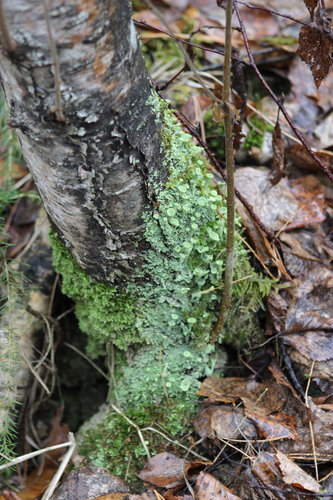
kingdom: Fungi
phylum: Ascomycota
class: Lecanoromycetes
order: Lecanorales
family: Cladoniaceae
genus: Cladonia
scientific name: Cladonia fimbriata
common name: Powdered trumpet lichen
